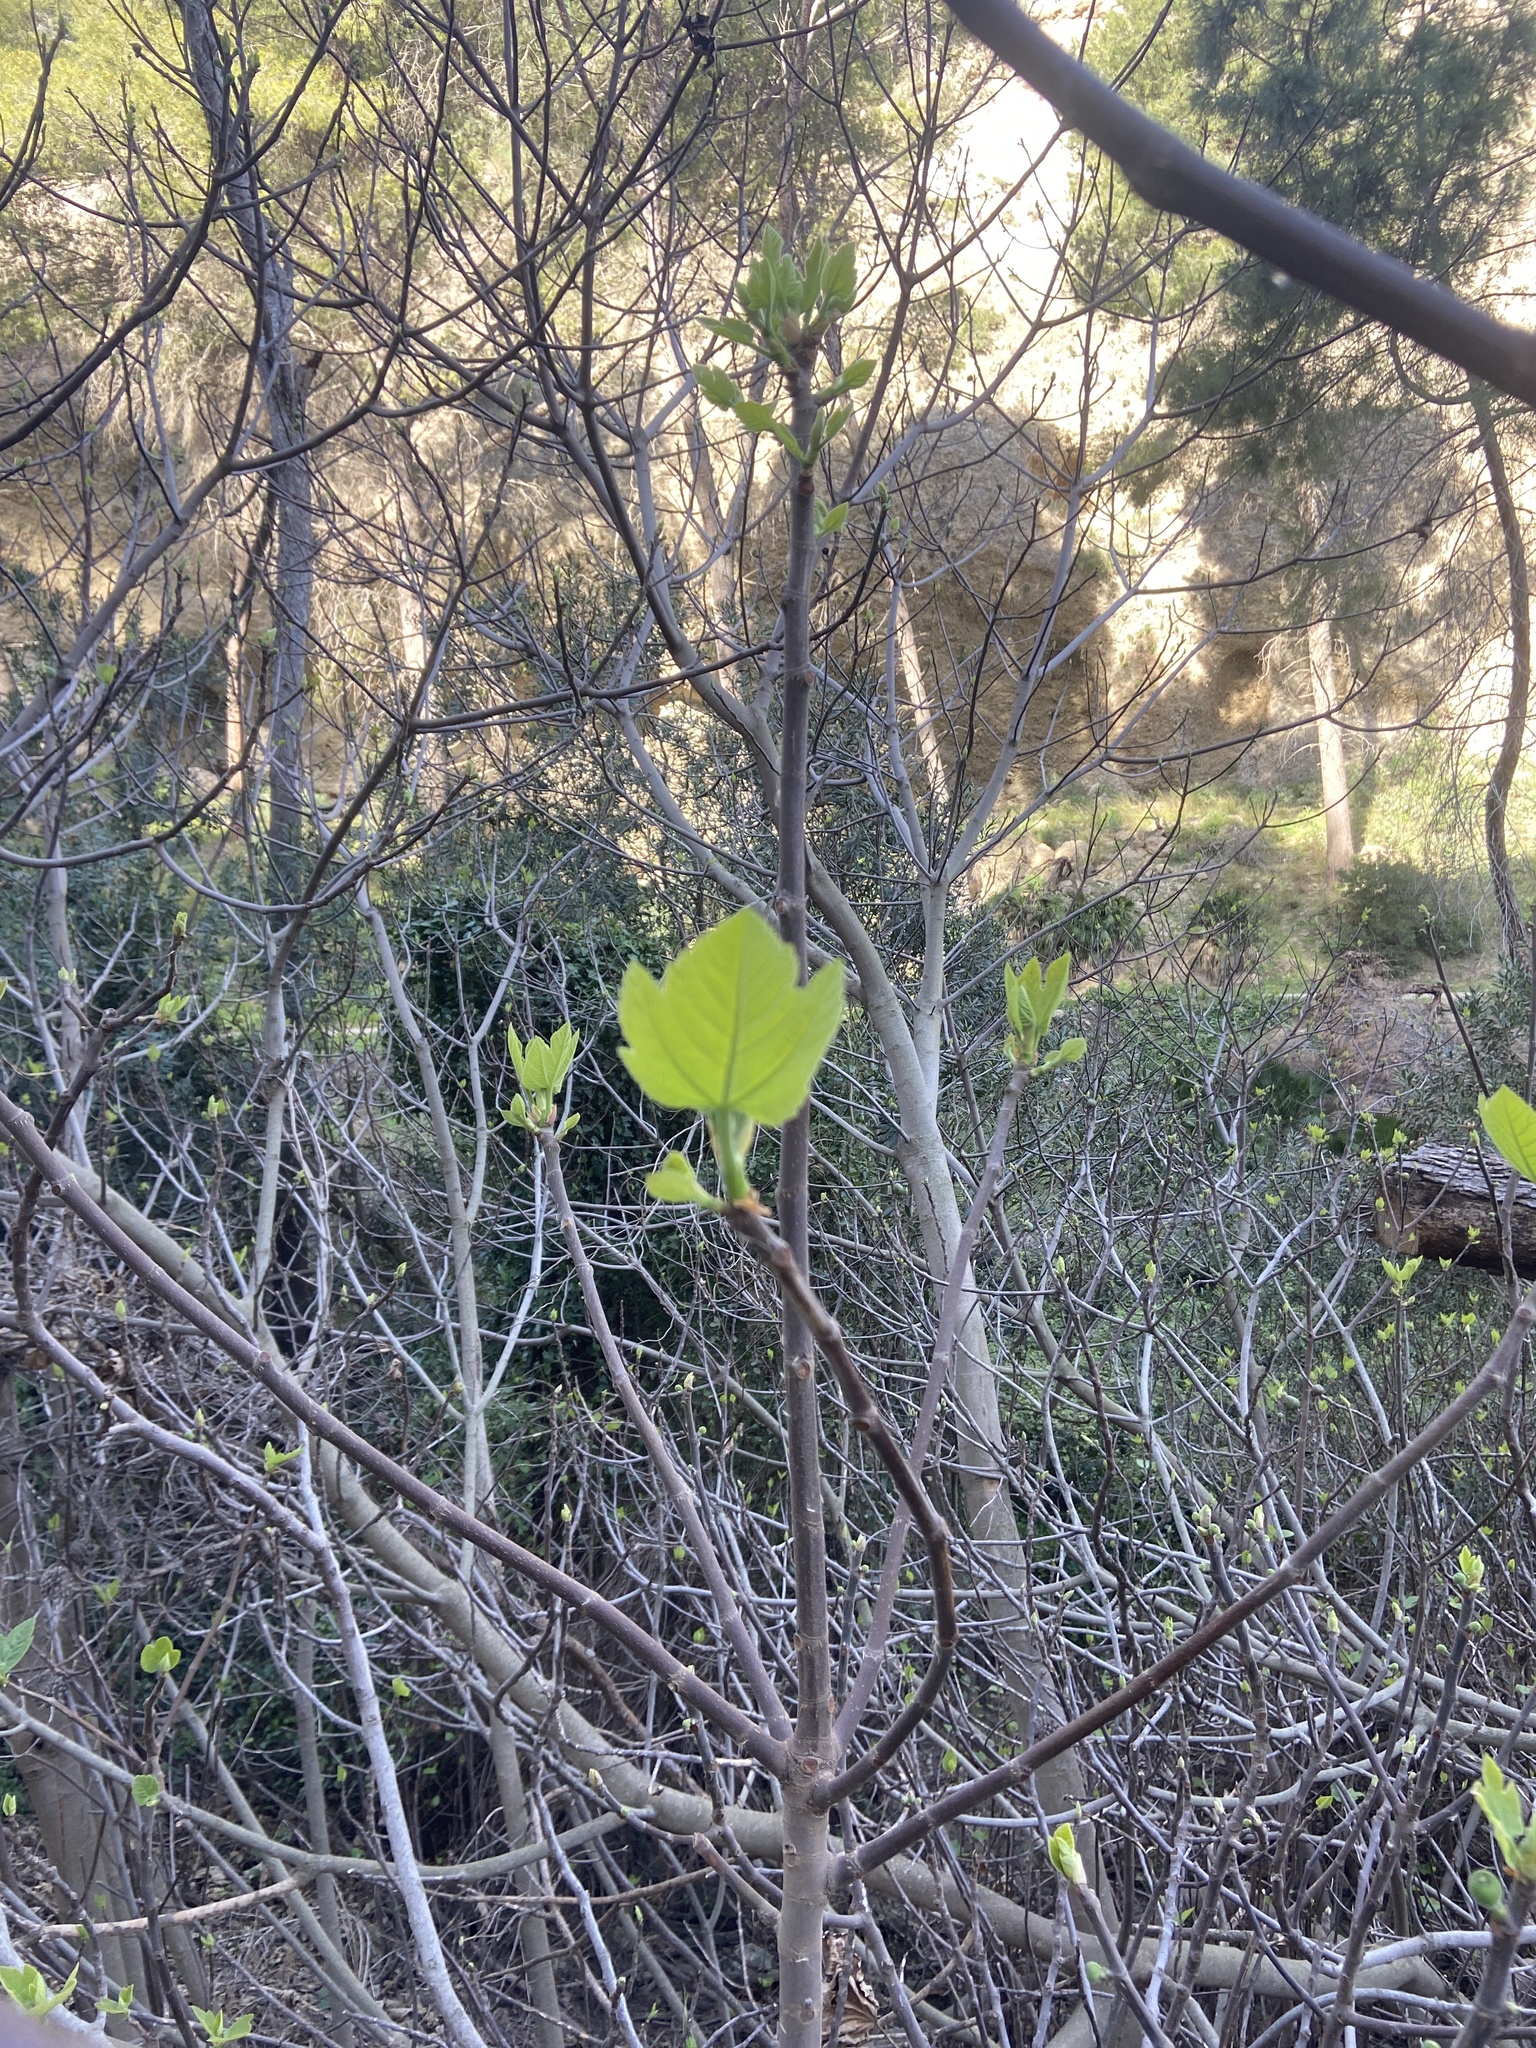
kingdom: Plantae
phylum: Tracheophyta
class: Magnoliopsida
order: Rosales
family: Moraceae
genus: Ficus
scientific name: Ficus carica
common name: Fig
